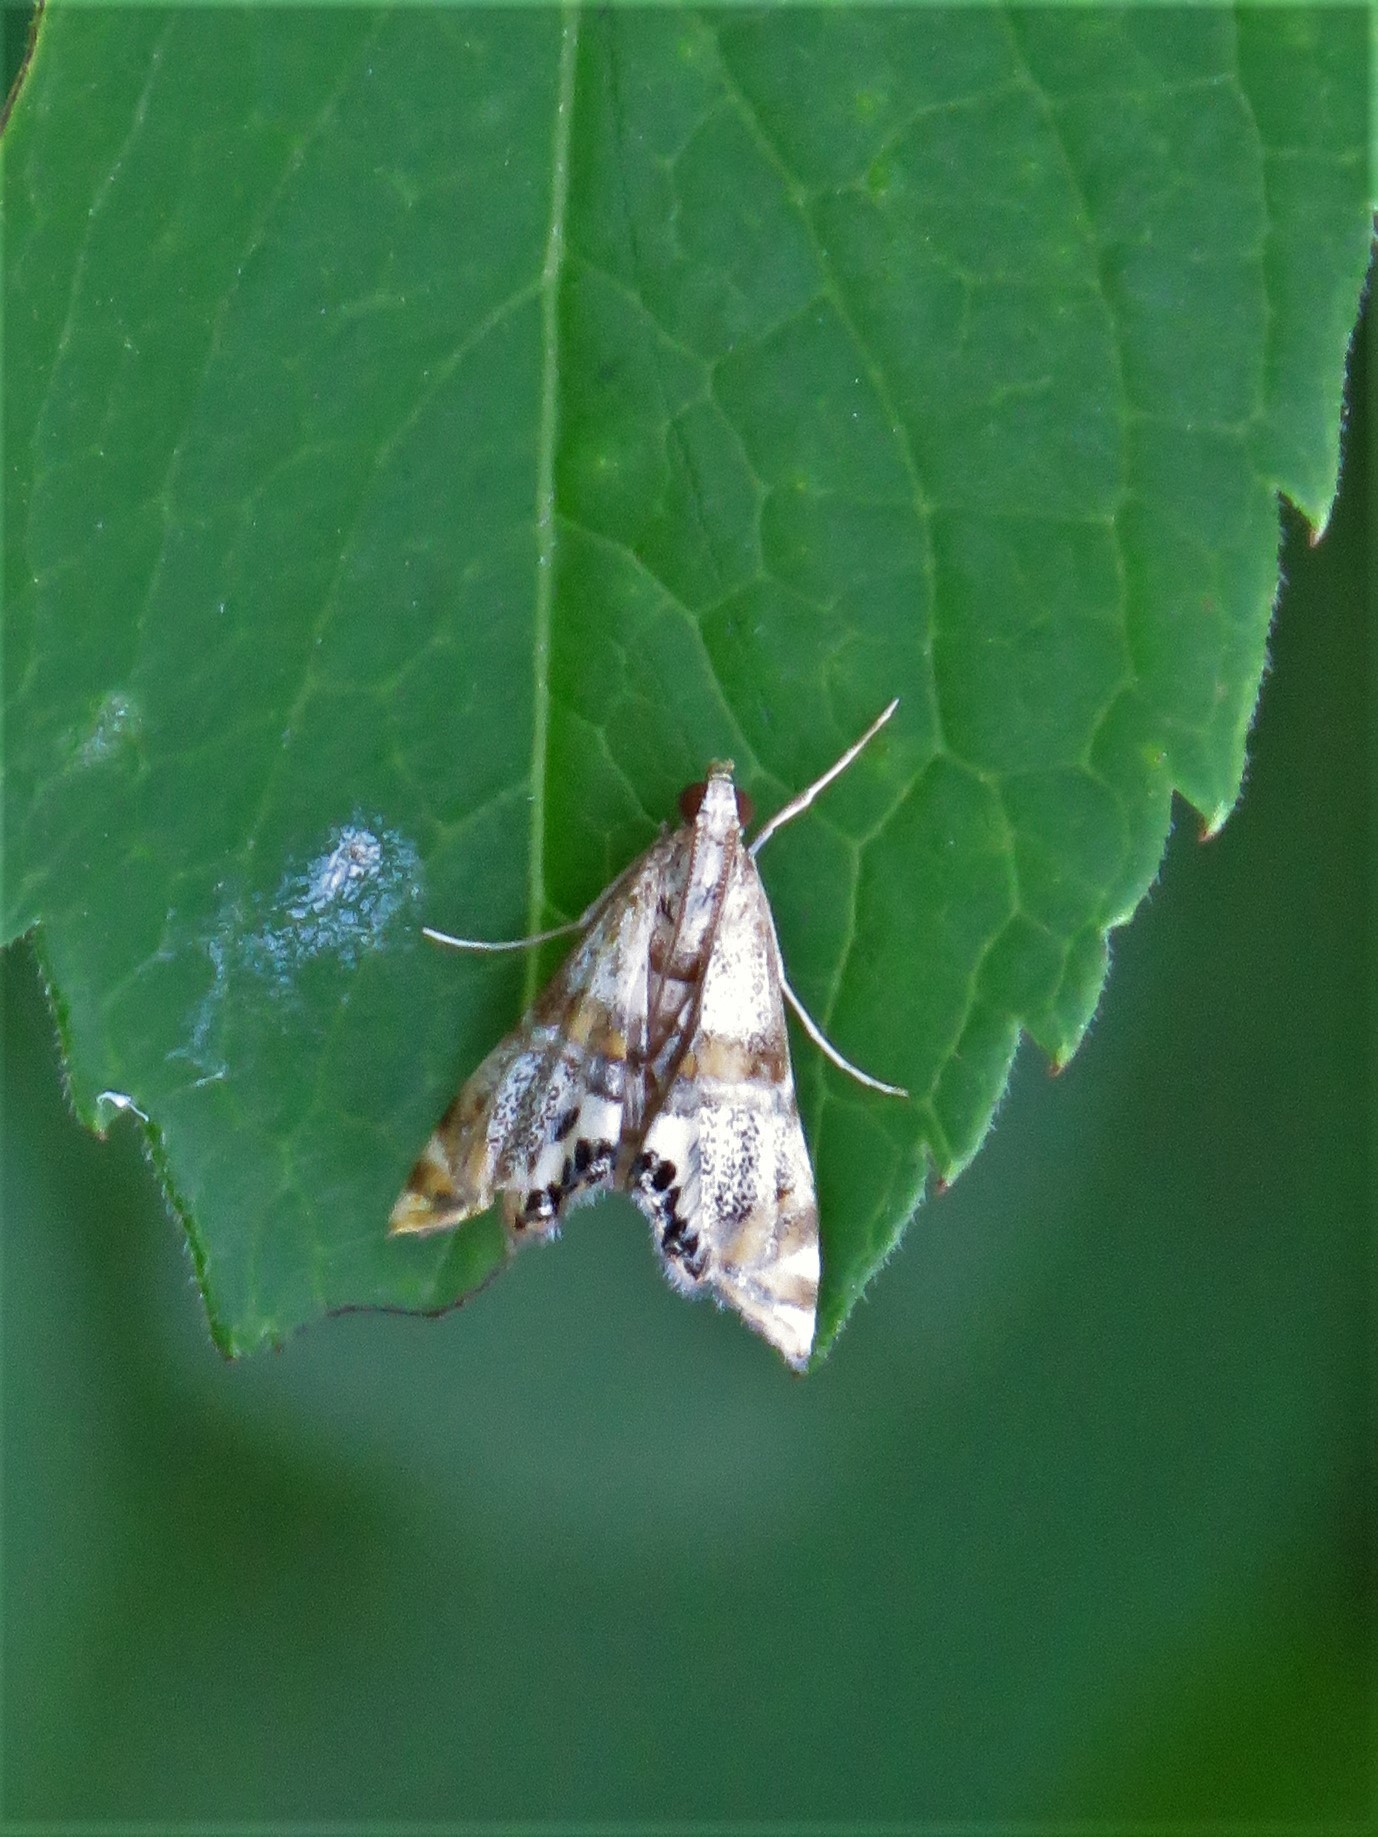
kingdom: Animalia
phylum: Arthropoda
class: Insecta
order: Lepidoptera
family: Crambidae
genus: Petrophila
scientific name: Petrophila bifascialis
